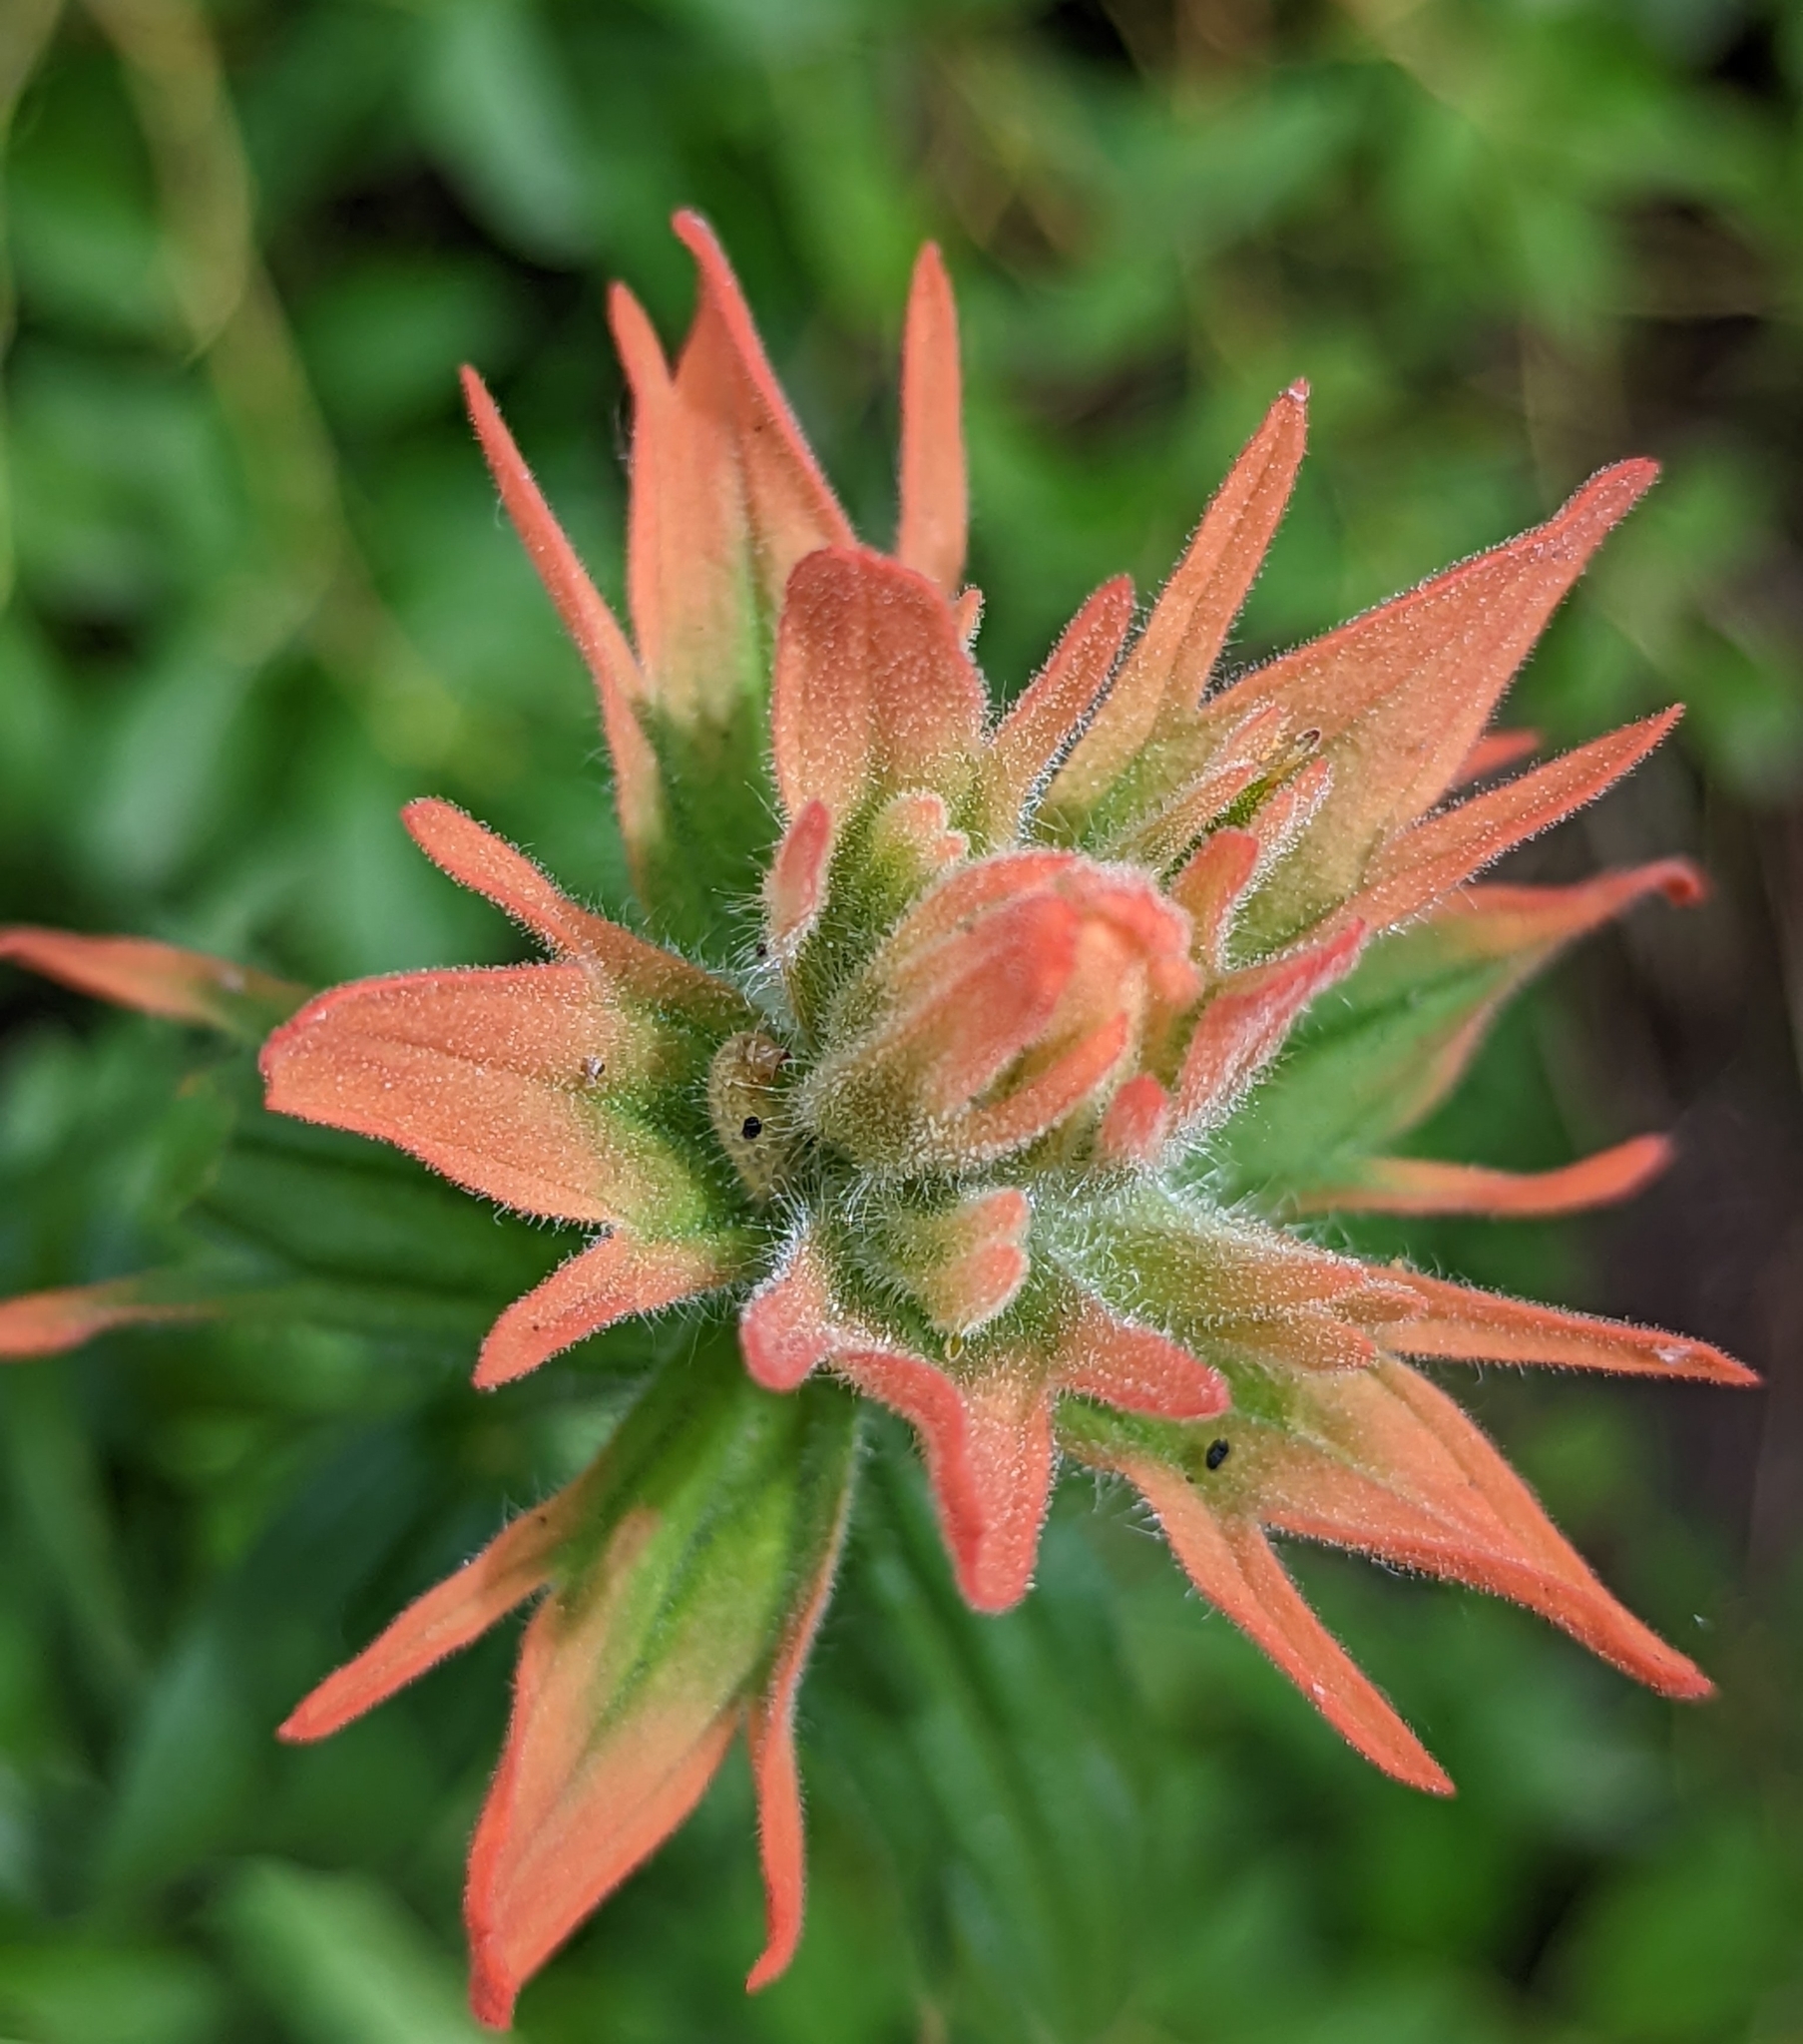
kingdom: Plantae
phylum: Tracheophyta
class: Magnoliopsida
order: Lamiales
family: Orobanchaceae
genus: Castilleja
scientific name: Castilleja miniata
